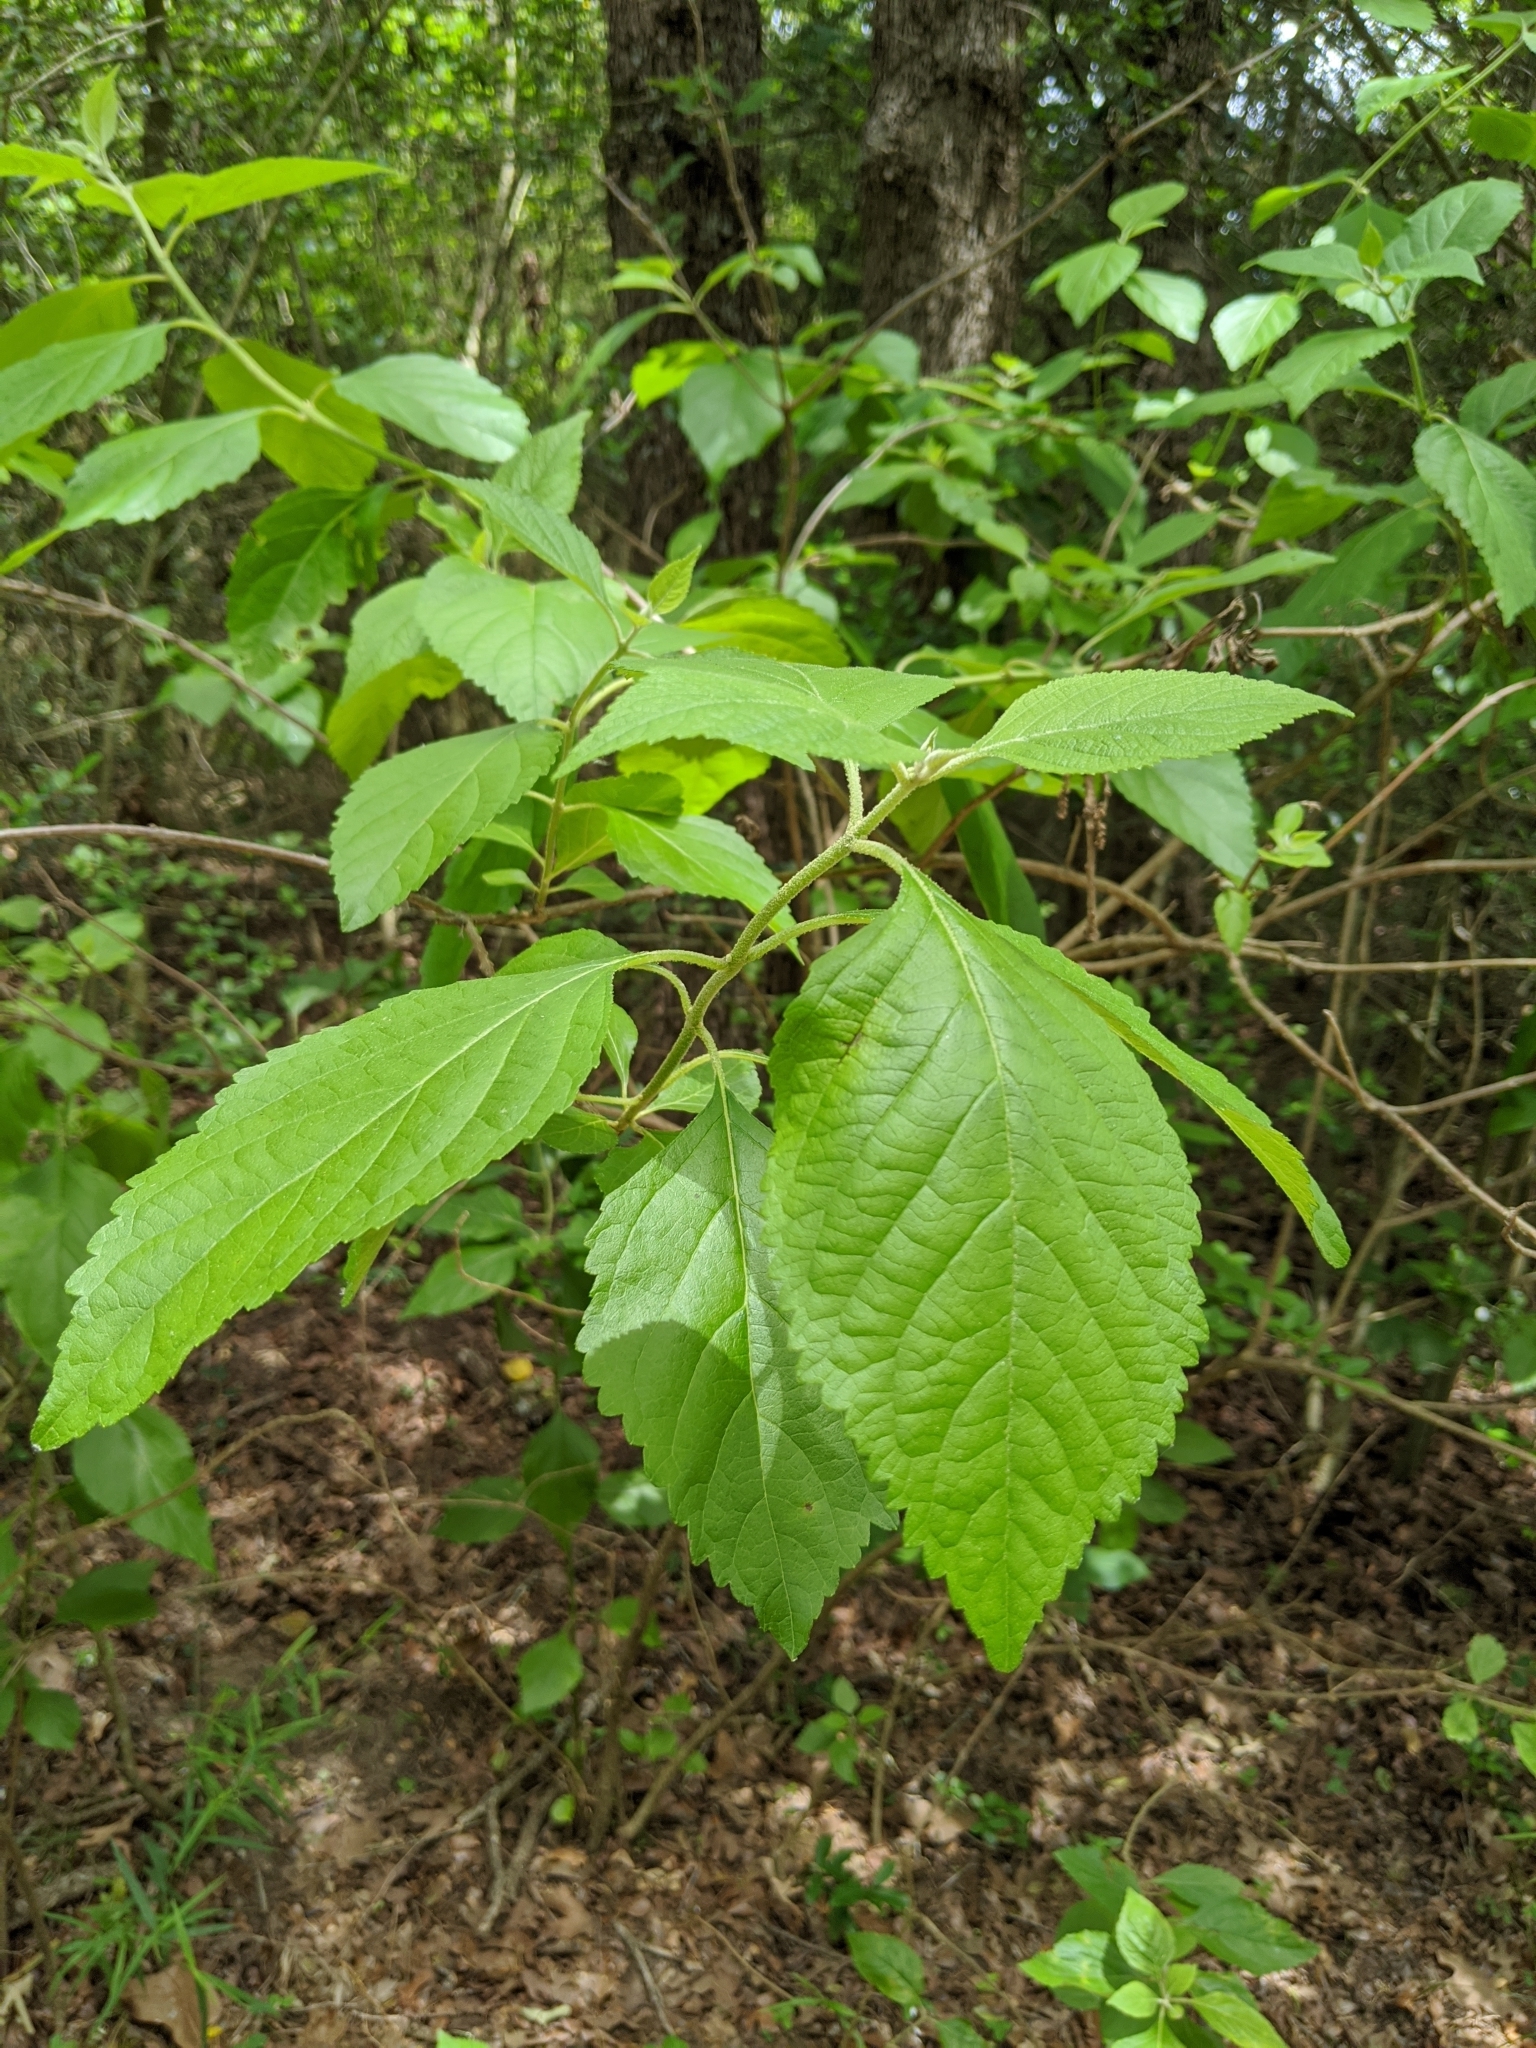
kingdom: Plantae
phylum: Tracheophyta
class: Magnoliopsida
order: Lamiales
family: Lamiaceae
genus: Callicarpa
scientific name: Callicarpa americana
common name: American beautyberry
